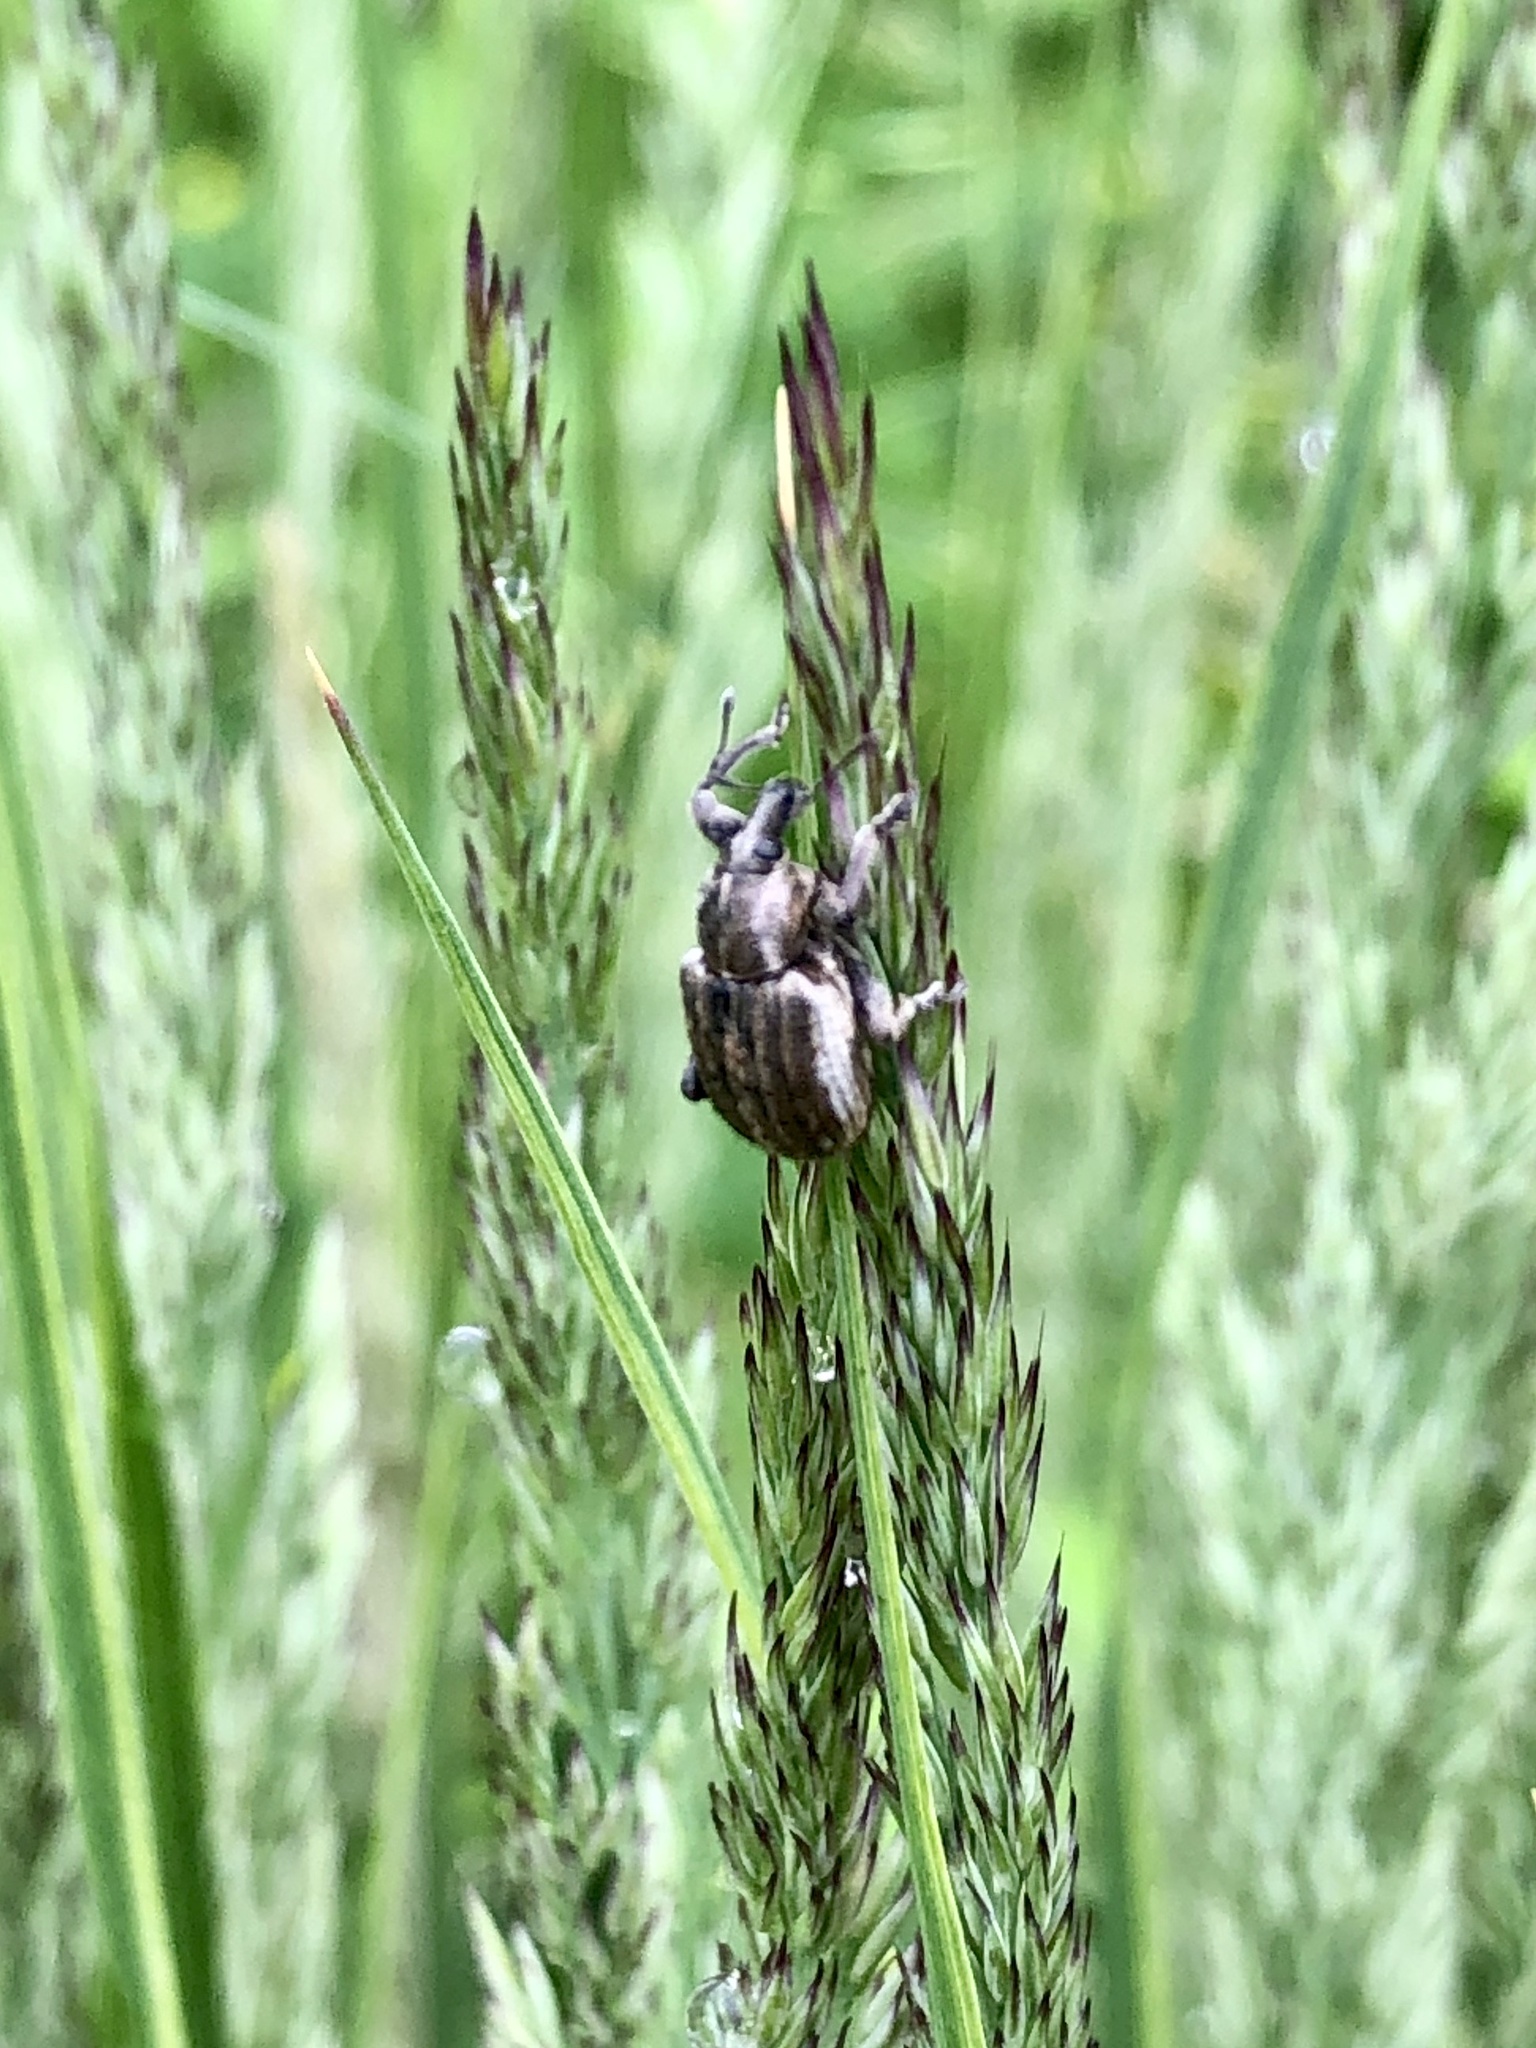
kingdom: Animalia
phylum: Arthropoda
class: Insecta
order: Coleoptera
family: Curculionidae
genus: Brachypera
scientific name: Brachypera zoilus
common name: Clover leaf weevil
